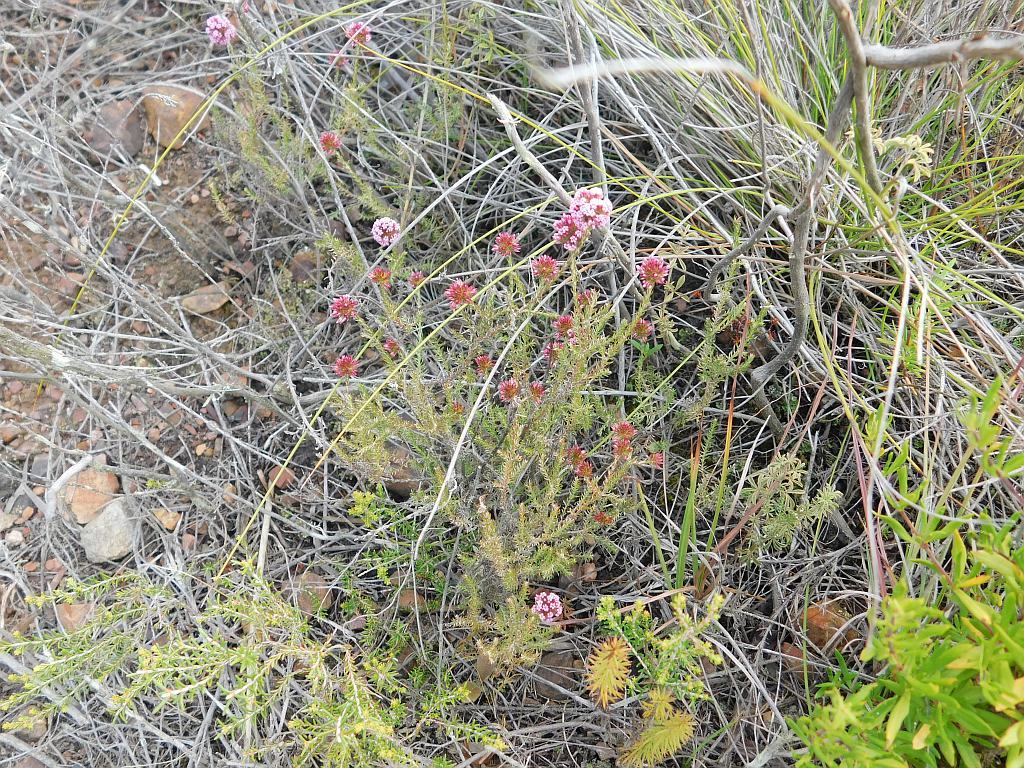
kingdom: Plantae
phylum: Tracheophyta
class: Magnoliopsida
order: Asterales
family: Asteraceae
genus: Stoebe
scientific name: Stoebe capitata
